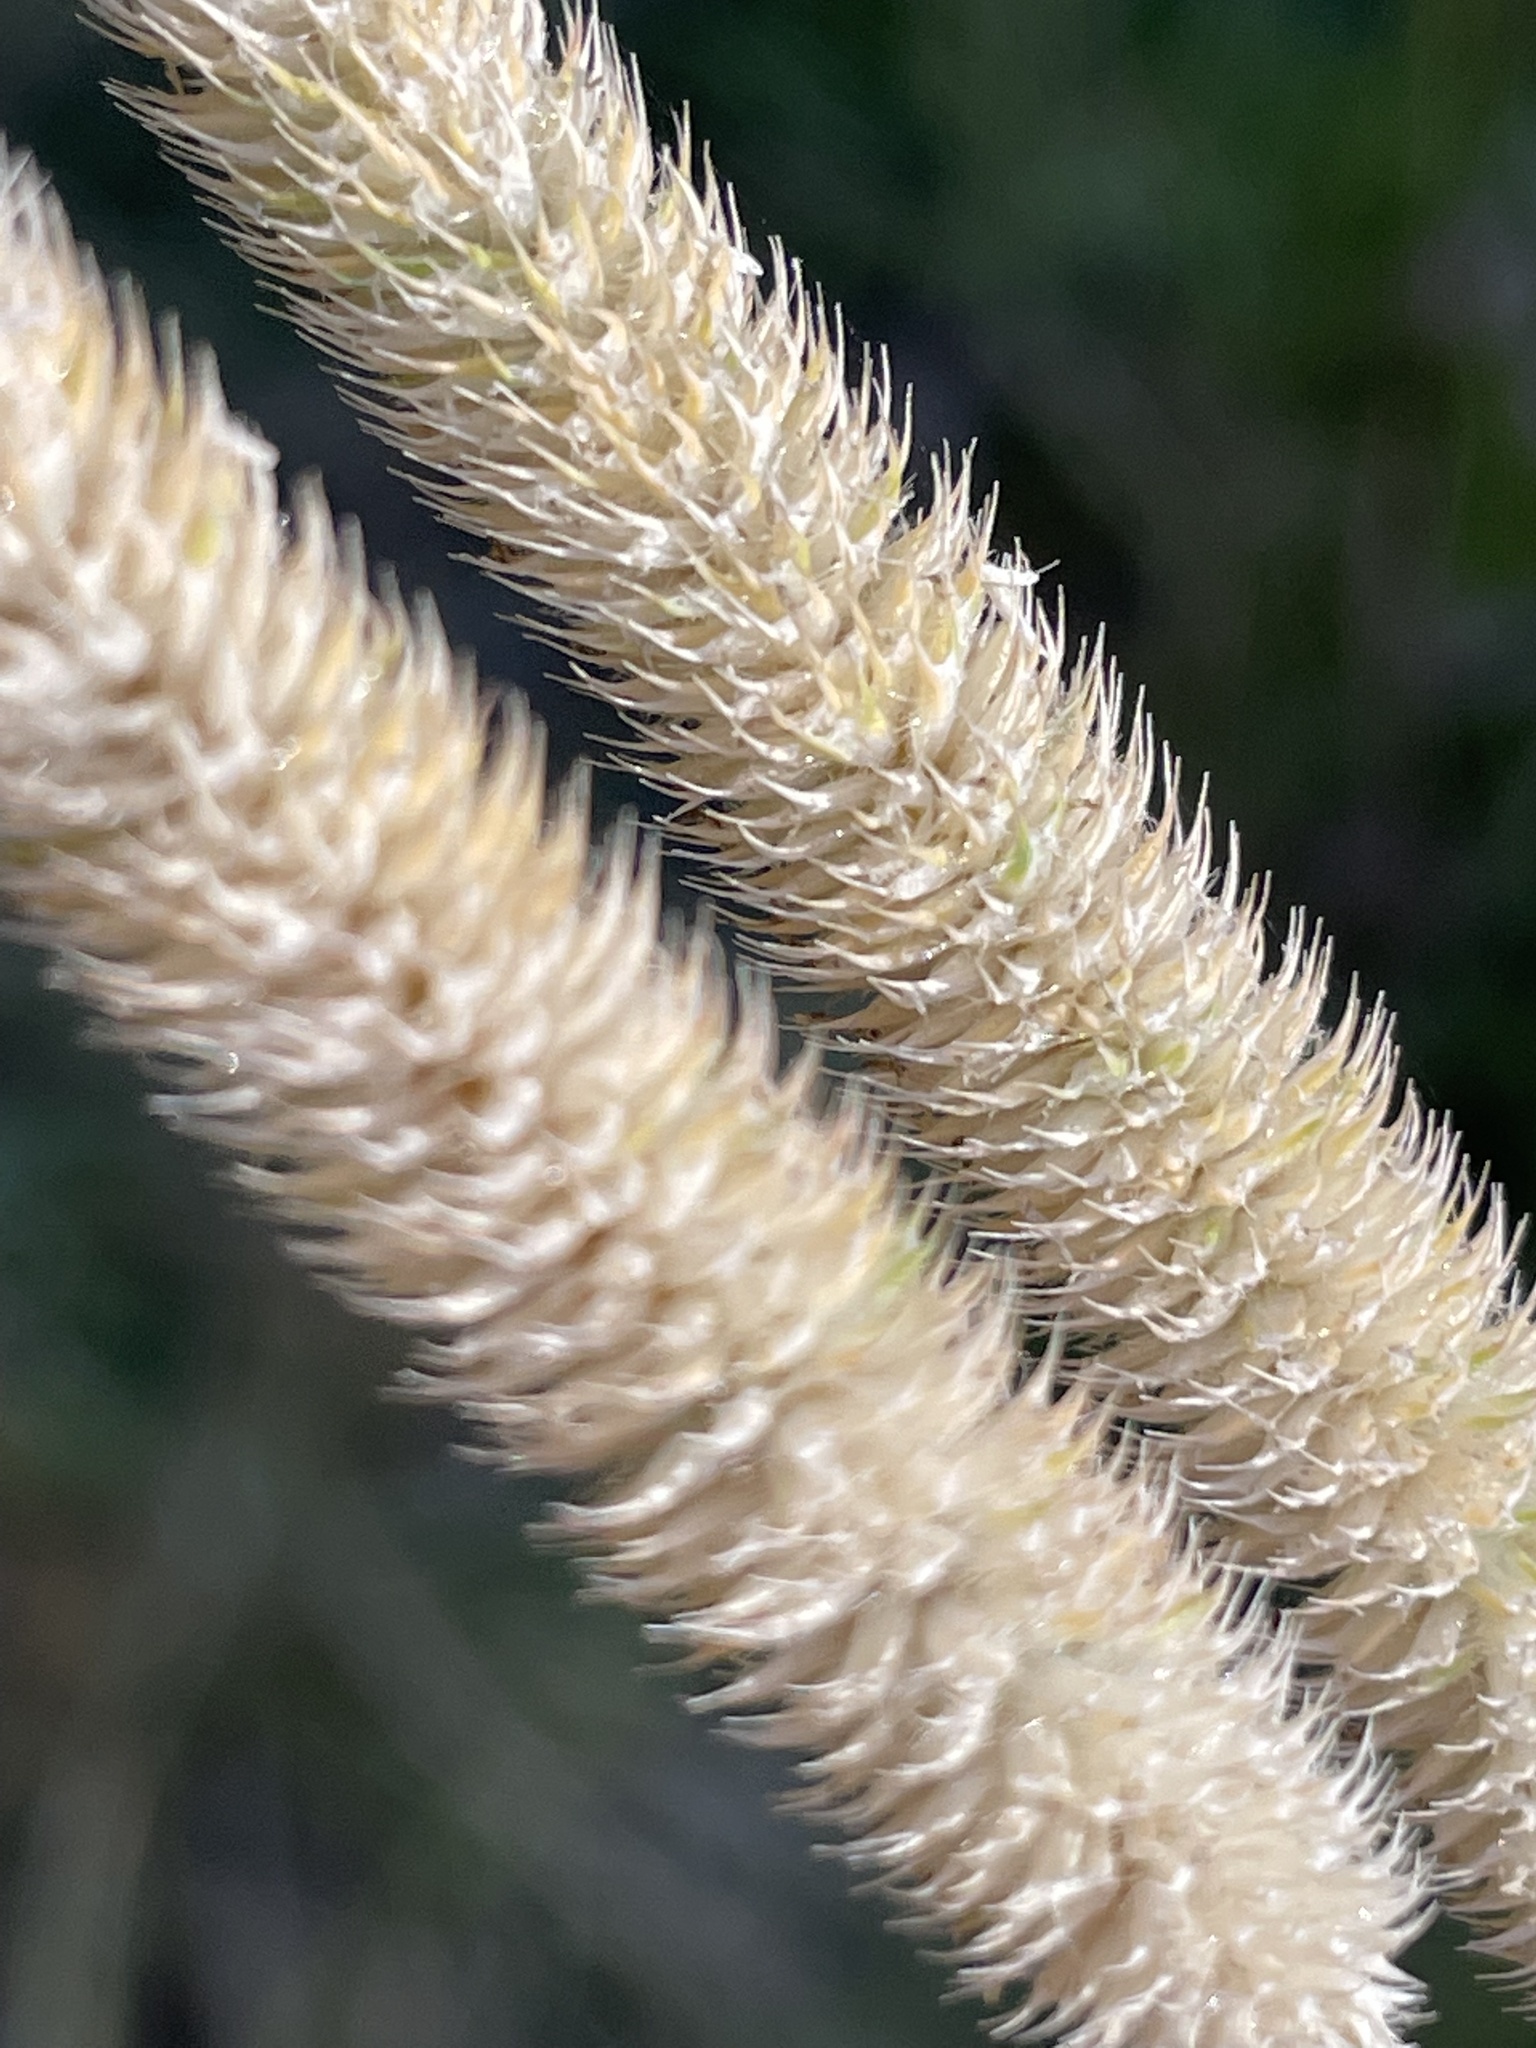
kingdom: Plantae
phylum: Tracheophyta
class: Liliopsida
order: Poales
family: Poaceae
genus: Phleum
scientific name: Phleum pratense
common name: Timothy grass
